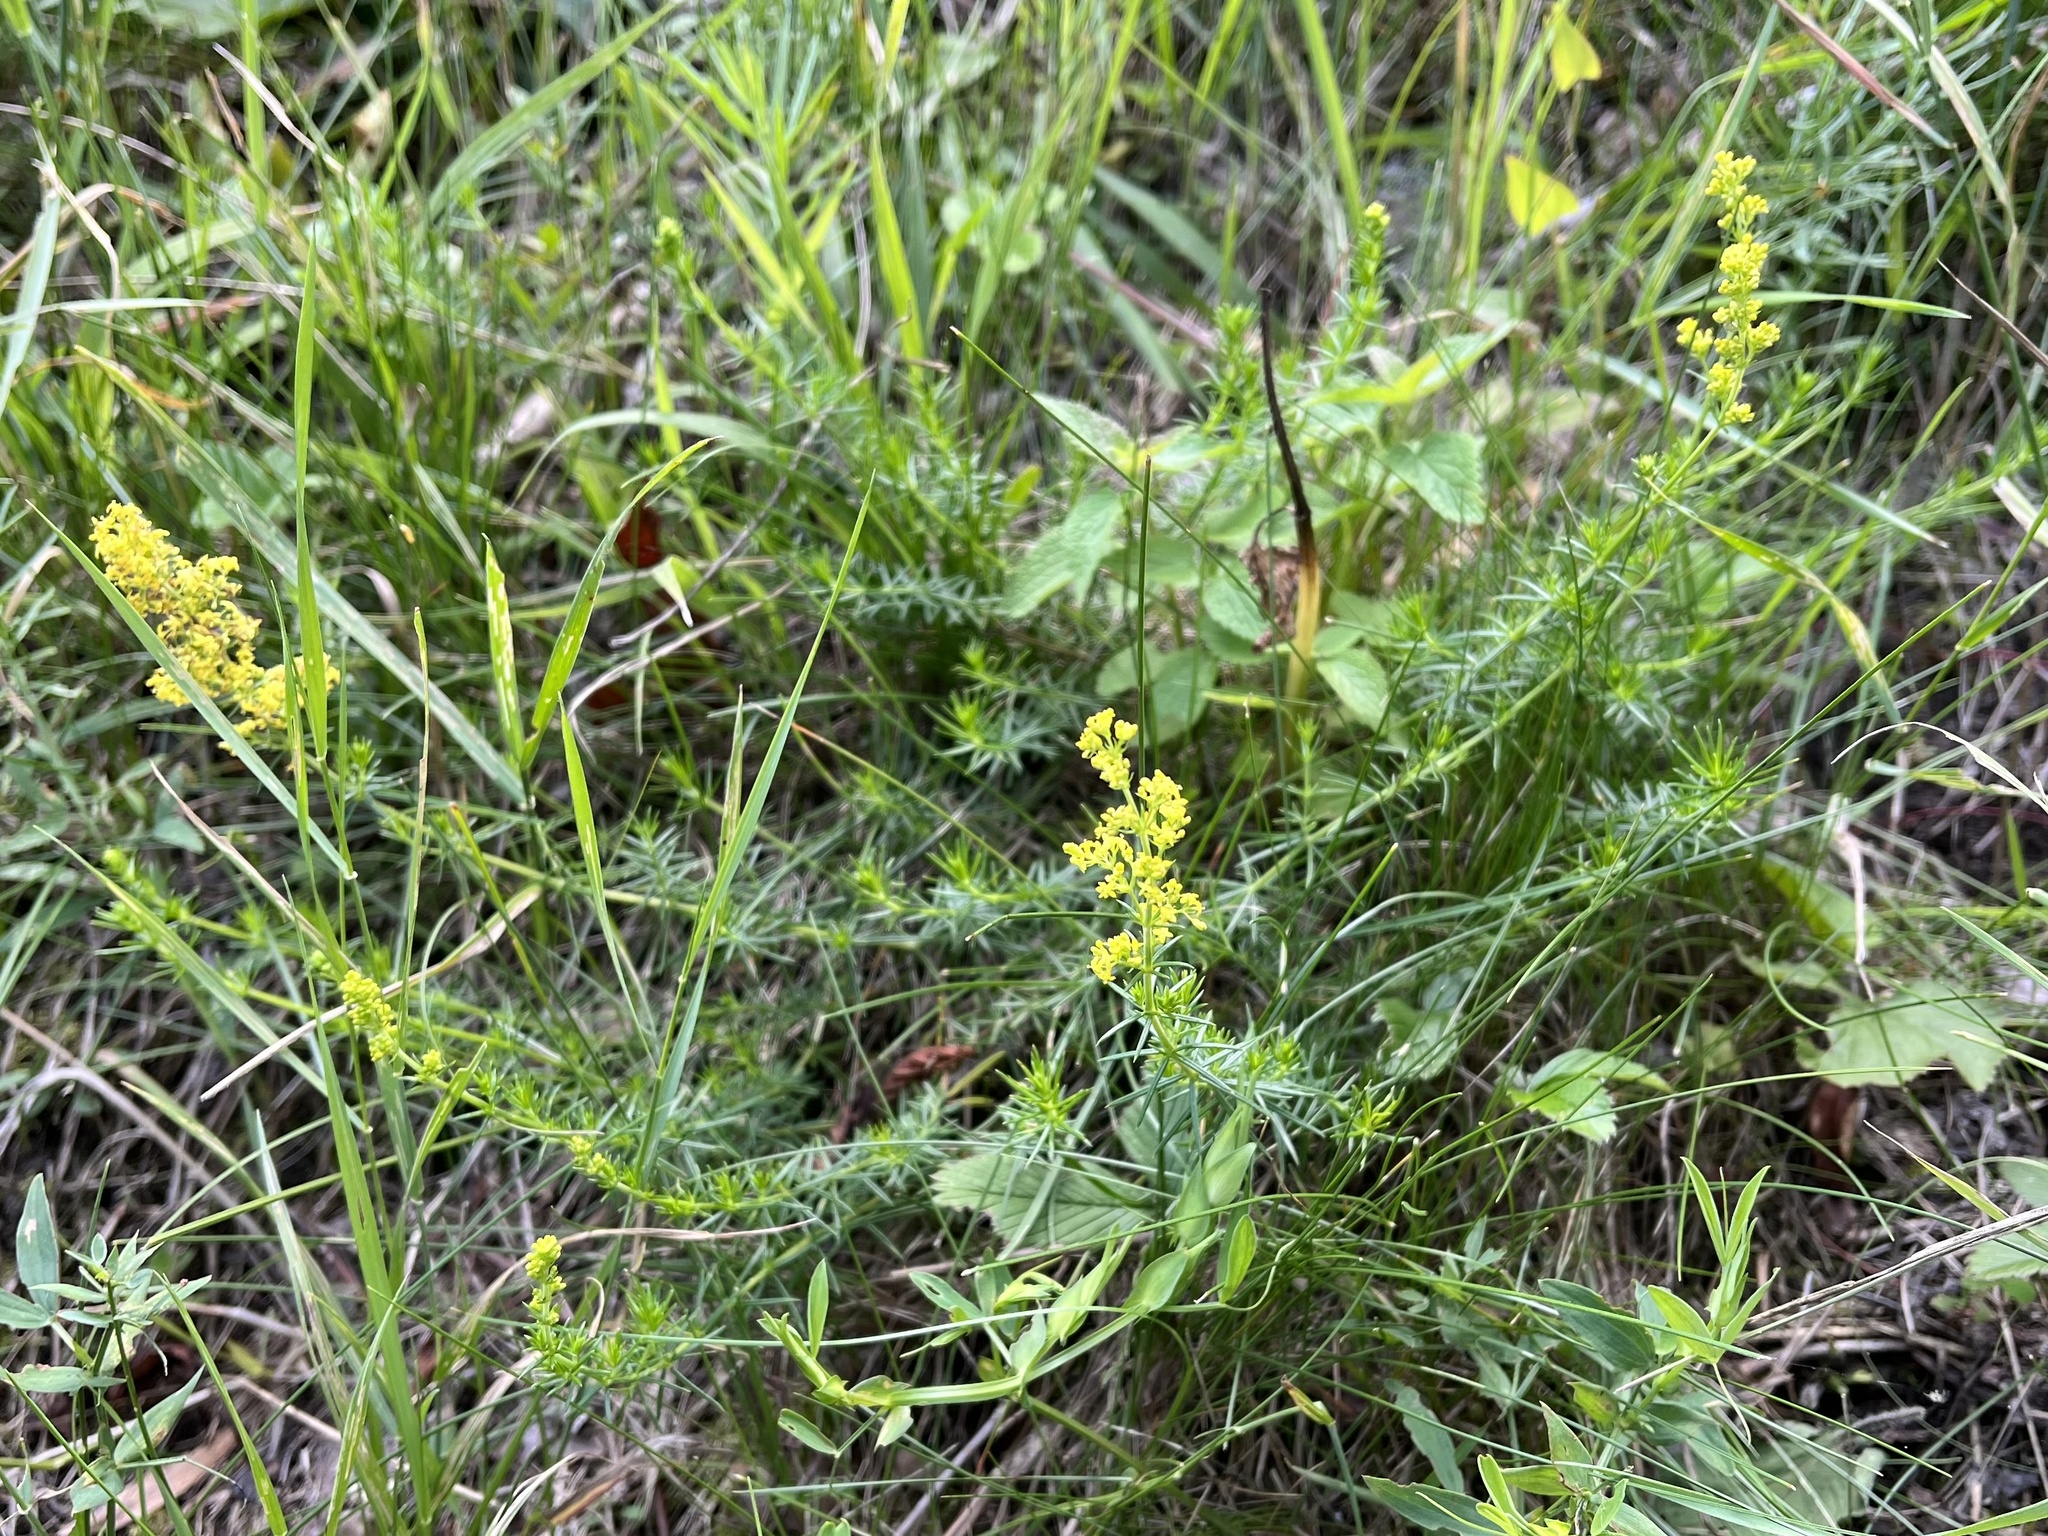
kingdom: Plantae
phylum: Tracheophyta
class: Magnoliopsida
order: Gentianales
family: Rubiaceae
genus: Galium
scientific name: Galium verum
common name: Lady's bedstraw
